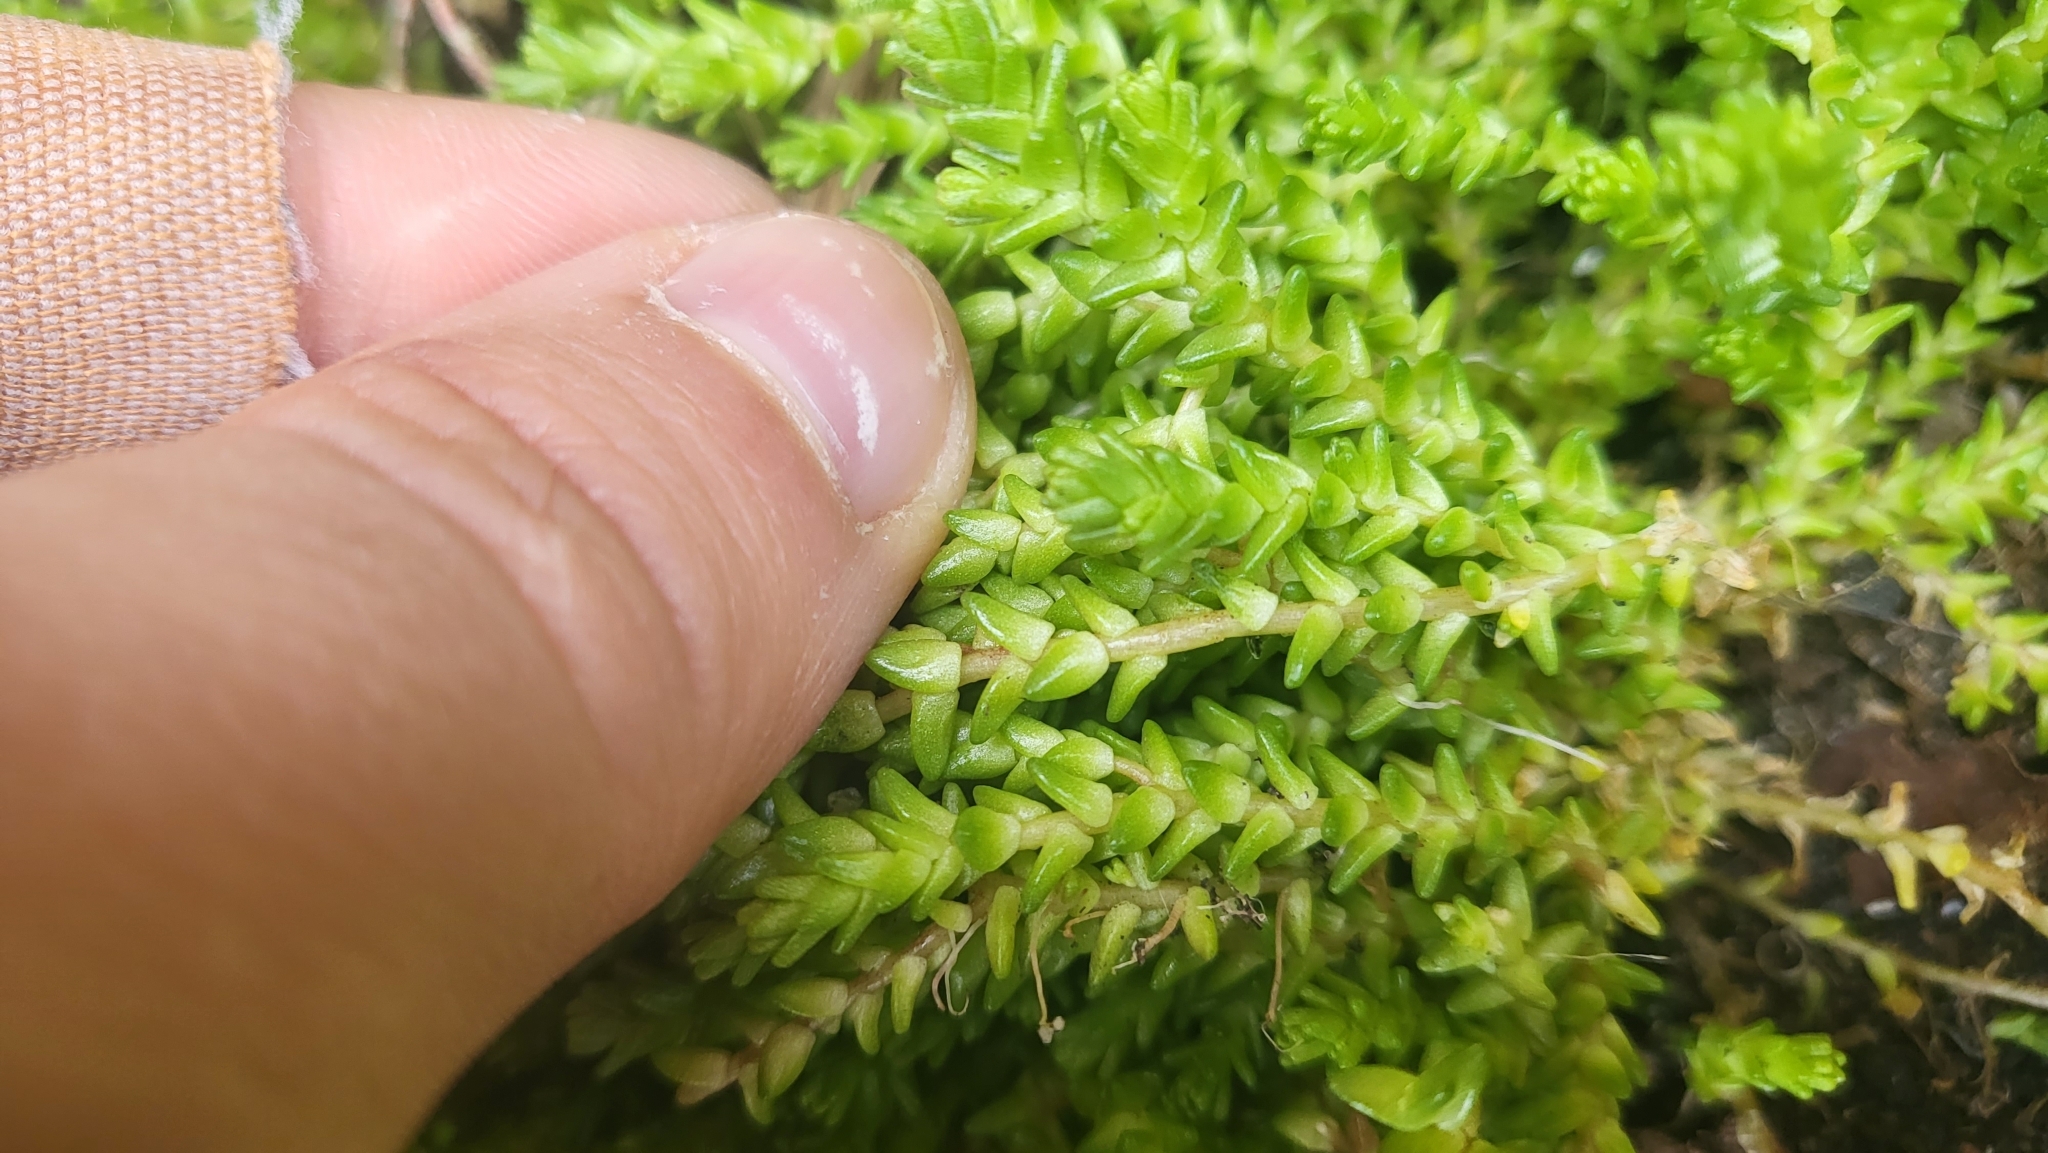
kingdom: Plantae
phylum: Tracheophyta
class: Magnoliopsida
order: Saxifragales
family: Crassulaceae
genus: Sedum
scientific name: Sedum acre
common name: Biting stonecrop
